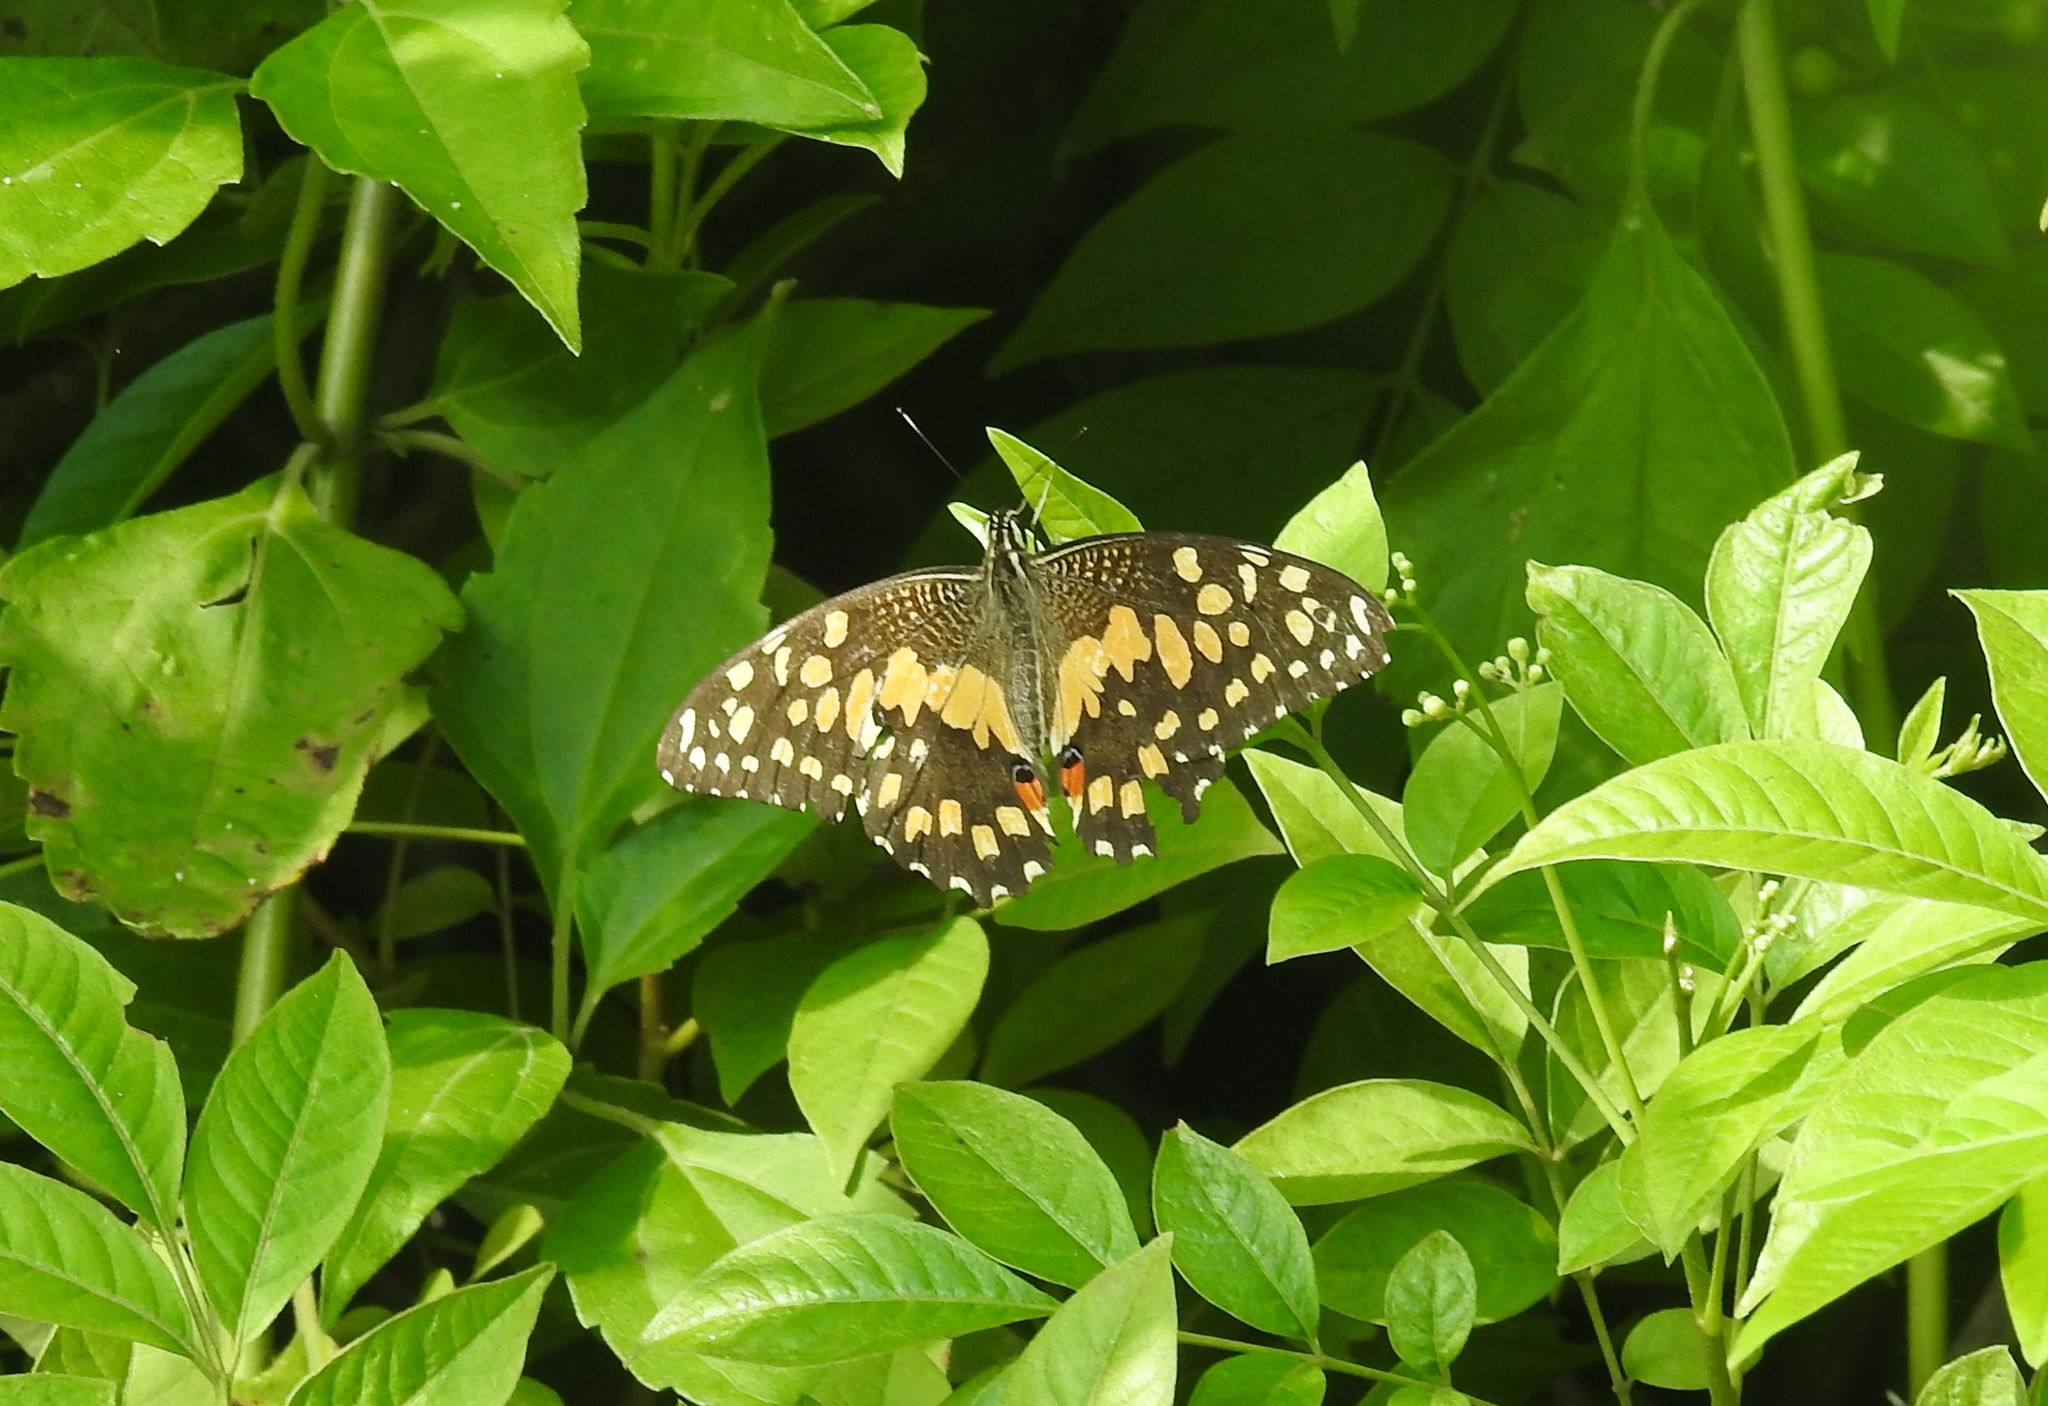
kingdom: Animalia
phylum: Arthropoda
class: Insecta
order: Lepidoptera
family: Papilionidae
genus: Papilio
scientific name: Papilio demoleus
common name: Lime butterfly
